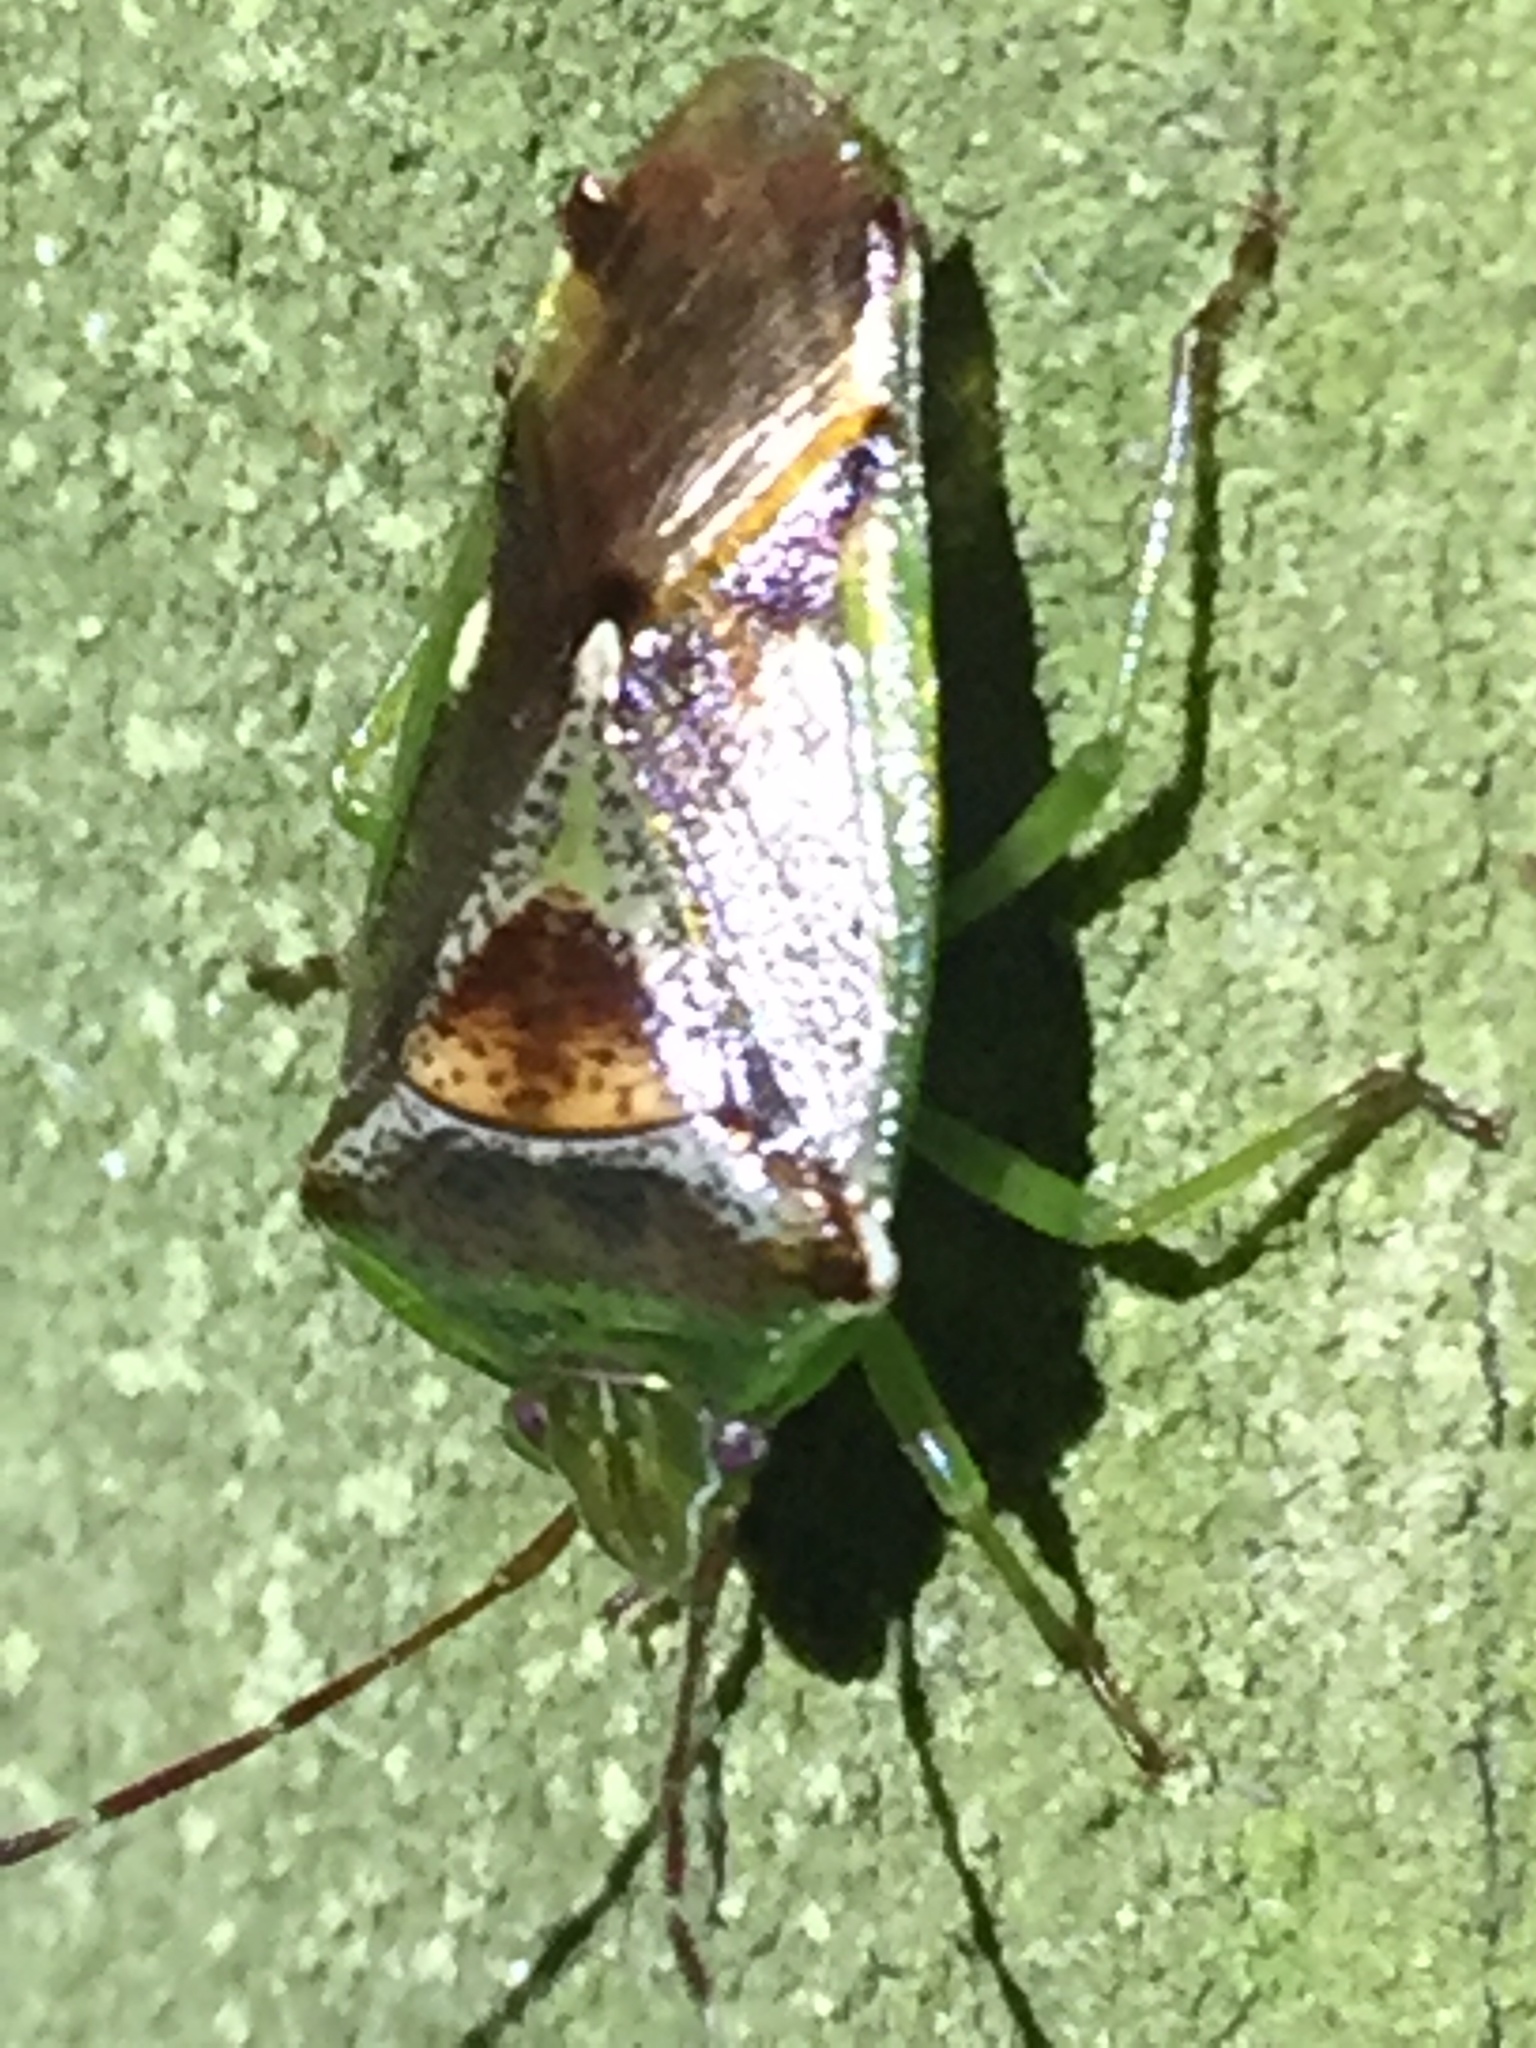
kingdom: Animalia
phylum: Arthropoda
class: Insecta
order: Hemiptera
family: Acanthosomatidae
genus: Oncacontias
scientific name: Oncacontias vittatus
